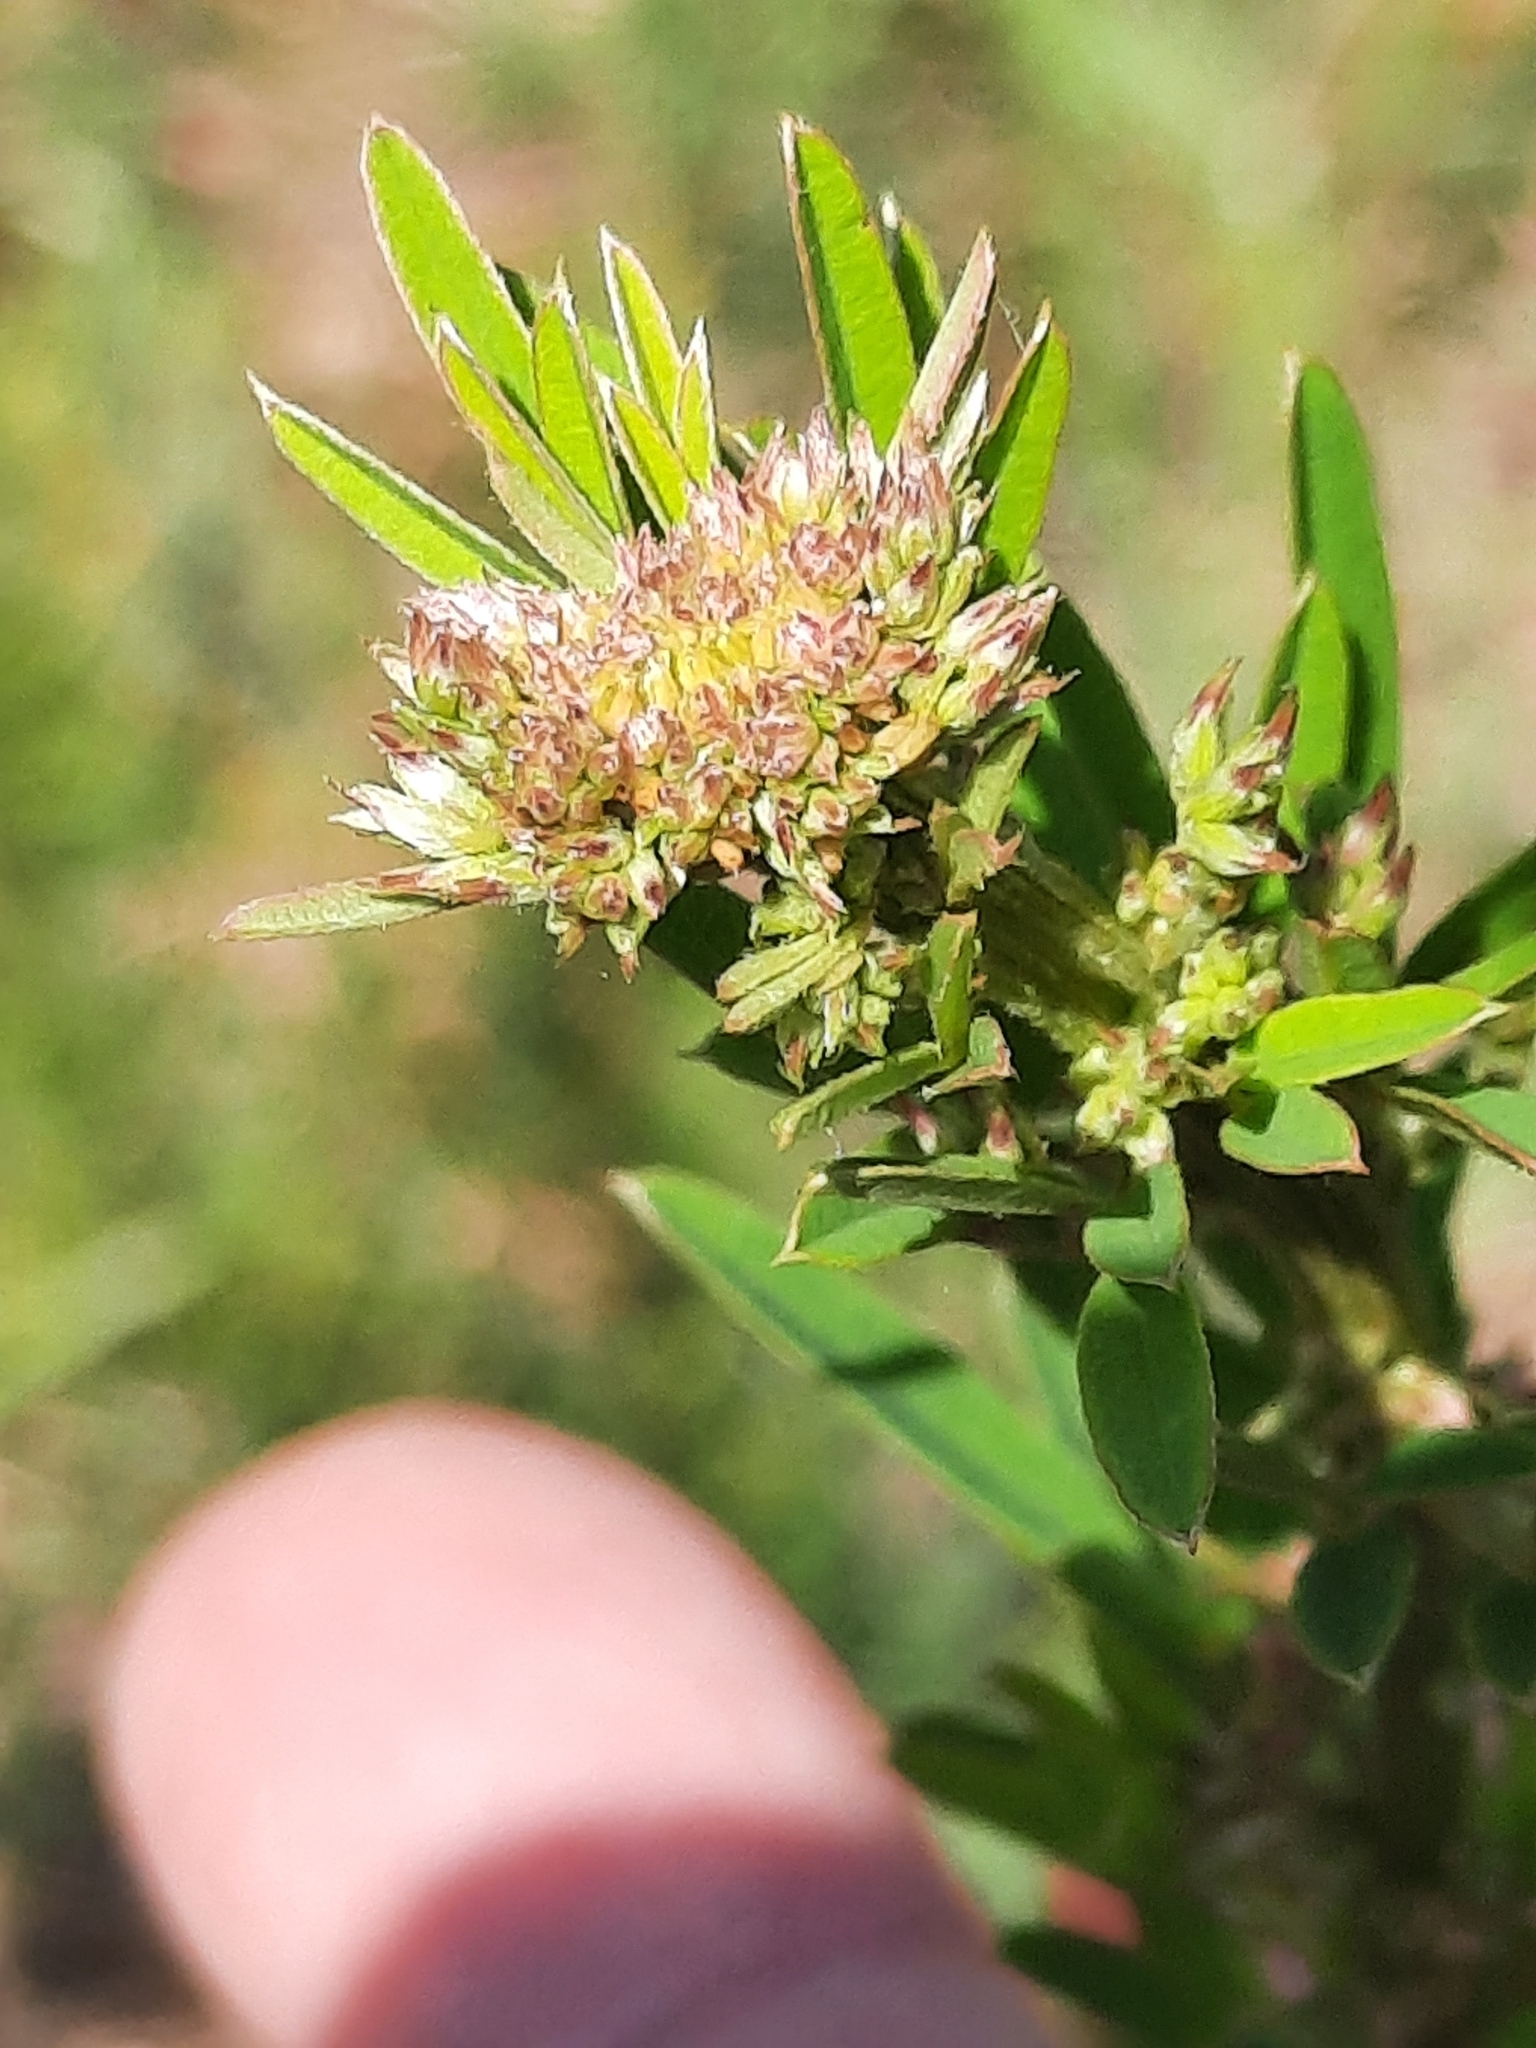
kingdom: Plantae
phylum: Tracheophyta
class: Magnoliopsida
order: Fabales
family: Fabaceae
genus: Lespedeza
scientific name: Lespedeza virginica
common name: Slender bush-clover
